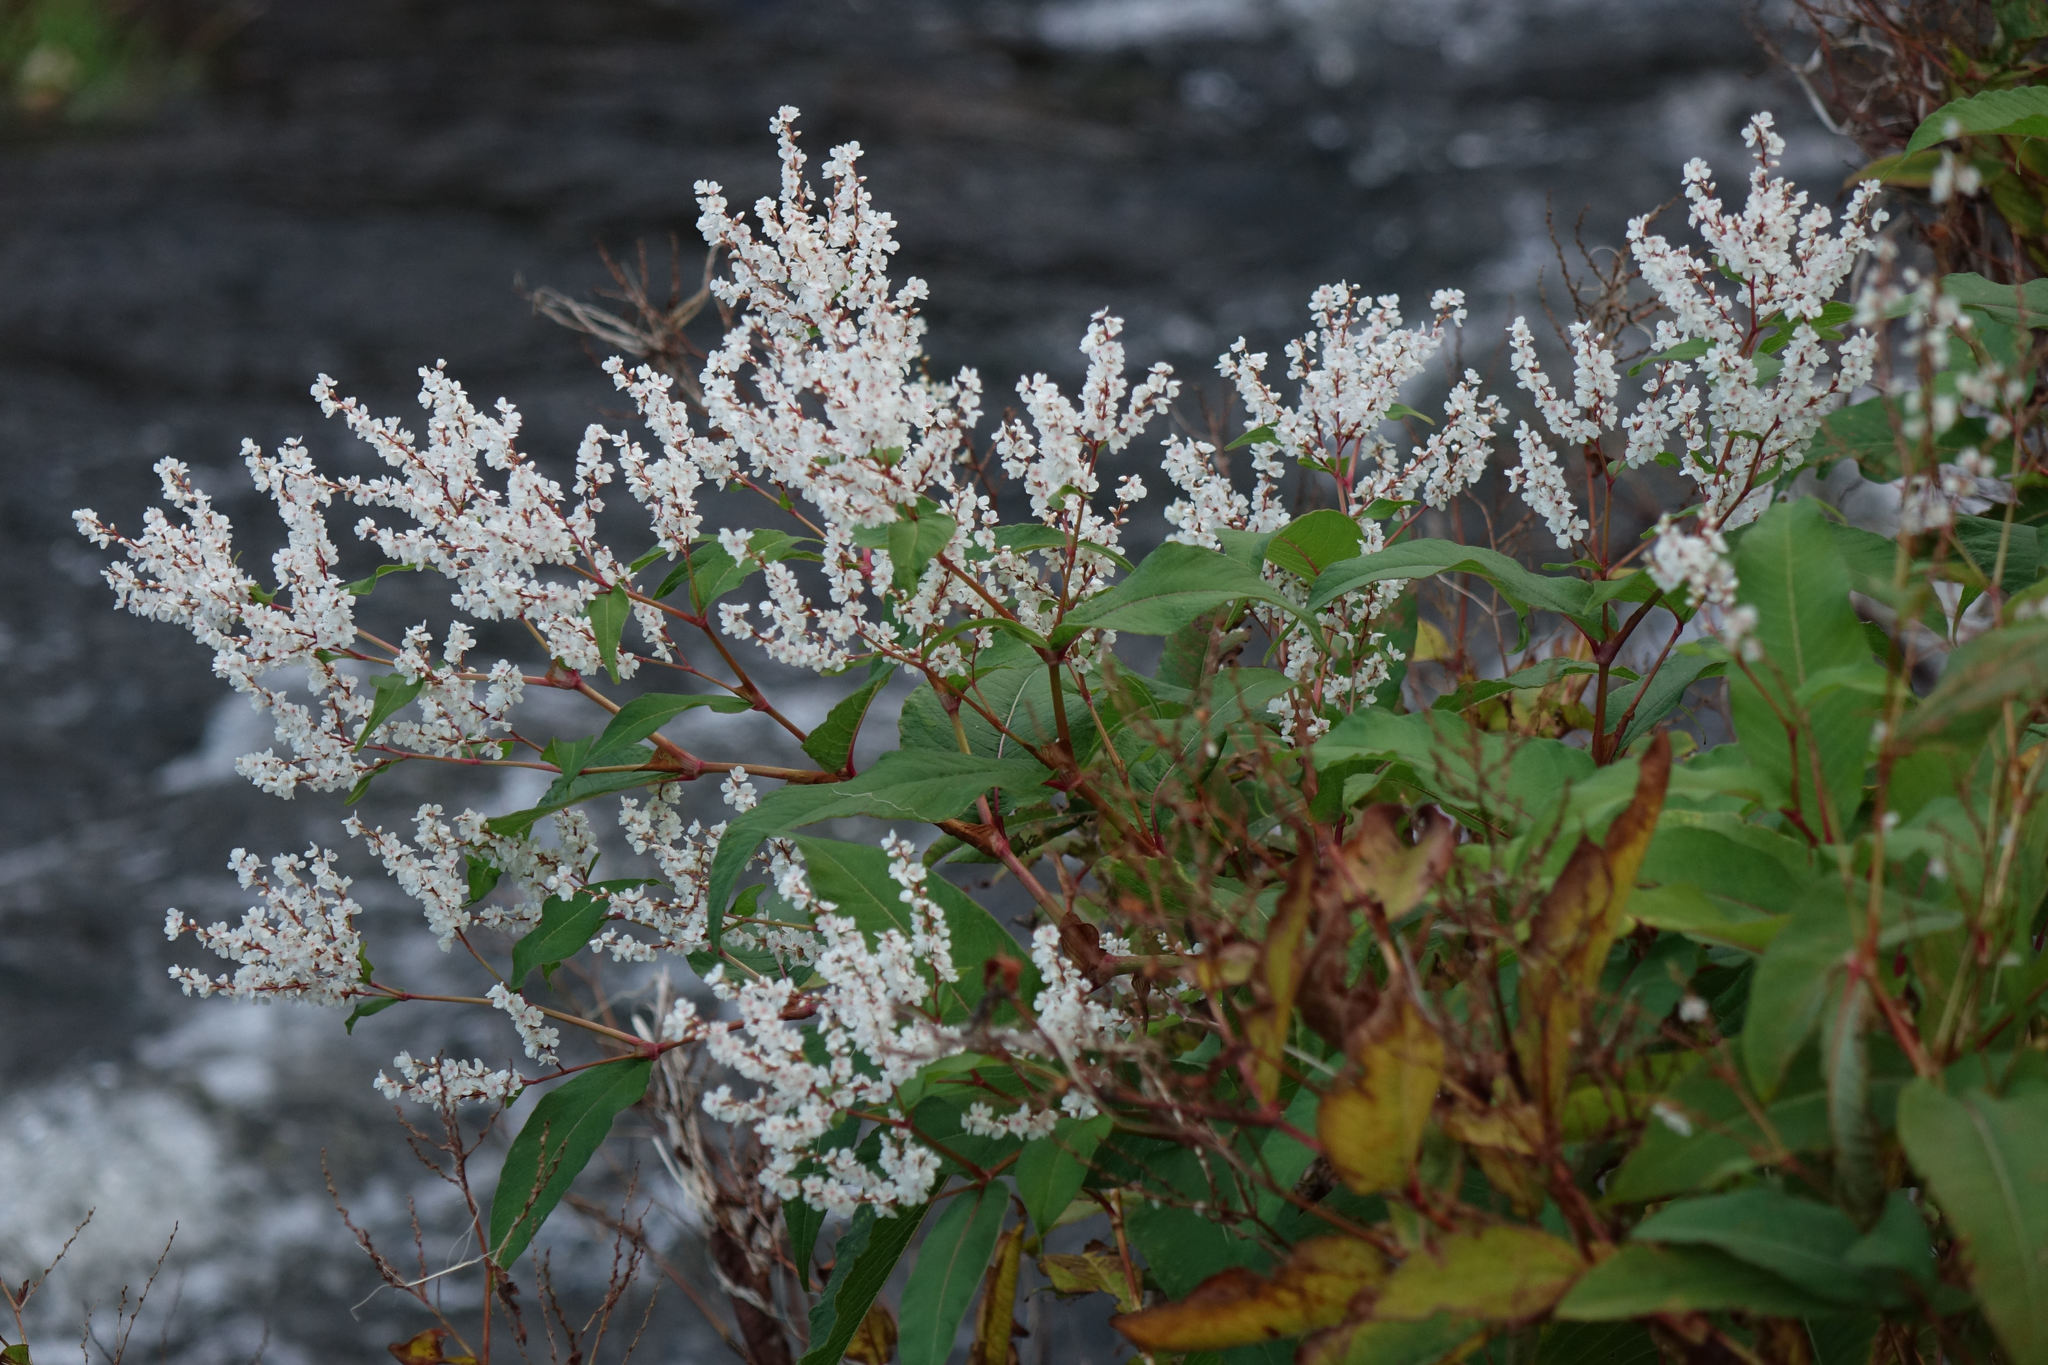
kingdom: Plantae
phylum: Tracheophyta
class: Magnoliopsida
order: Caryophyllales
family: Polygonaceae
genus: Koenigia
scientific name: Koenigia polystachya
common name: Himalayan knotweed
